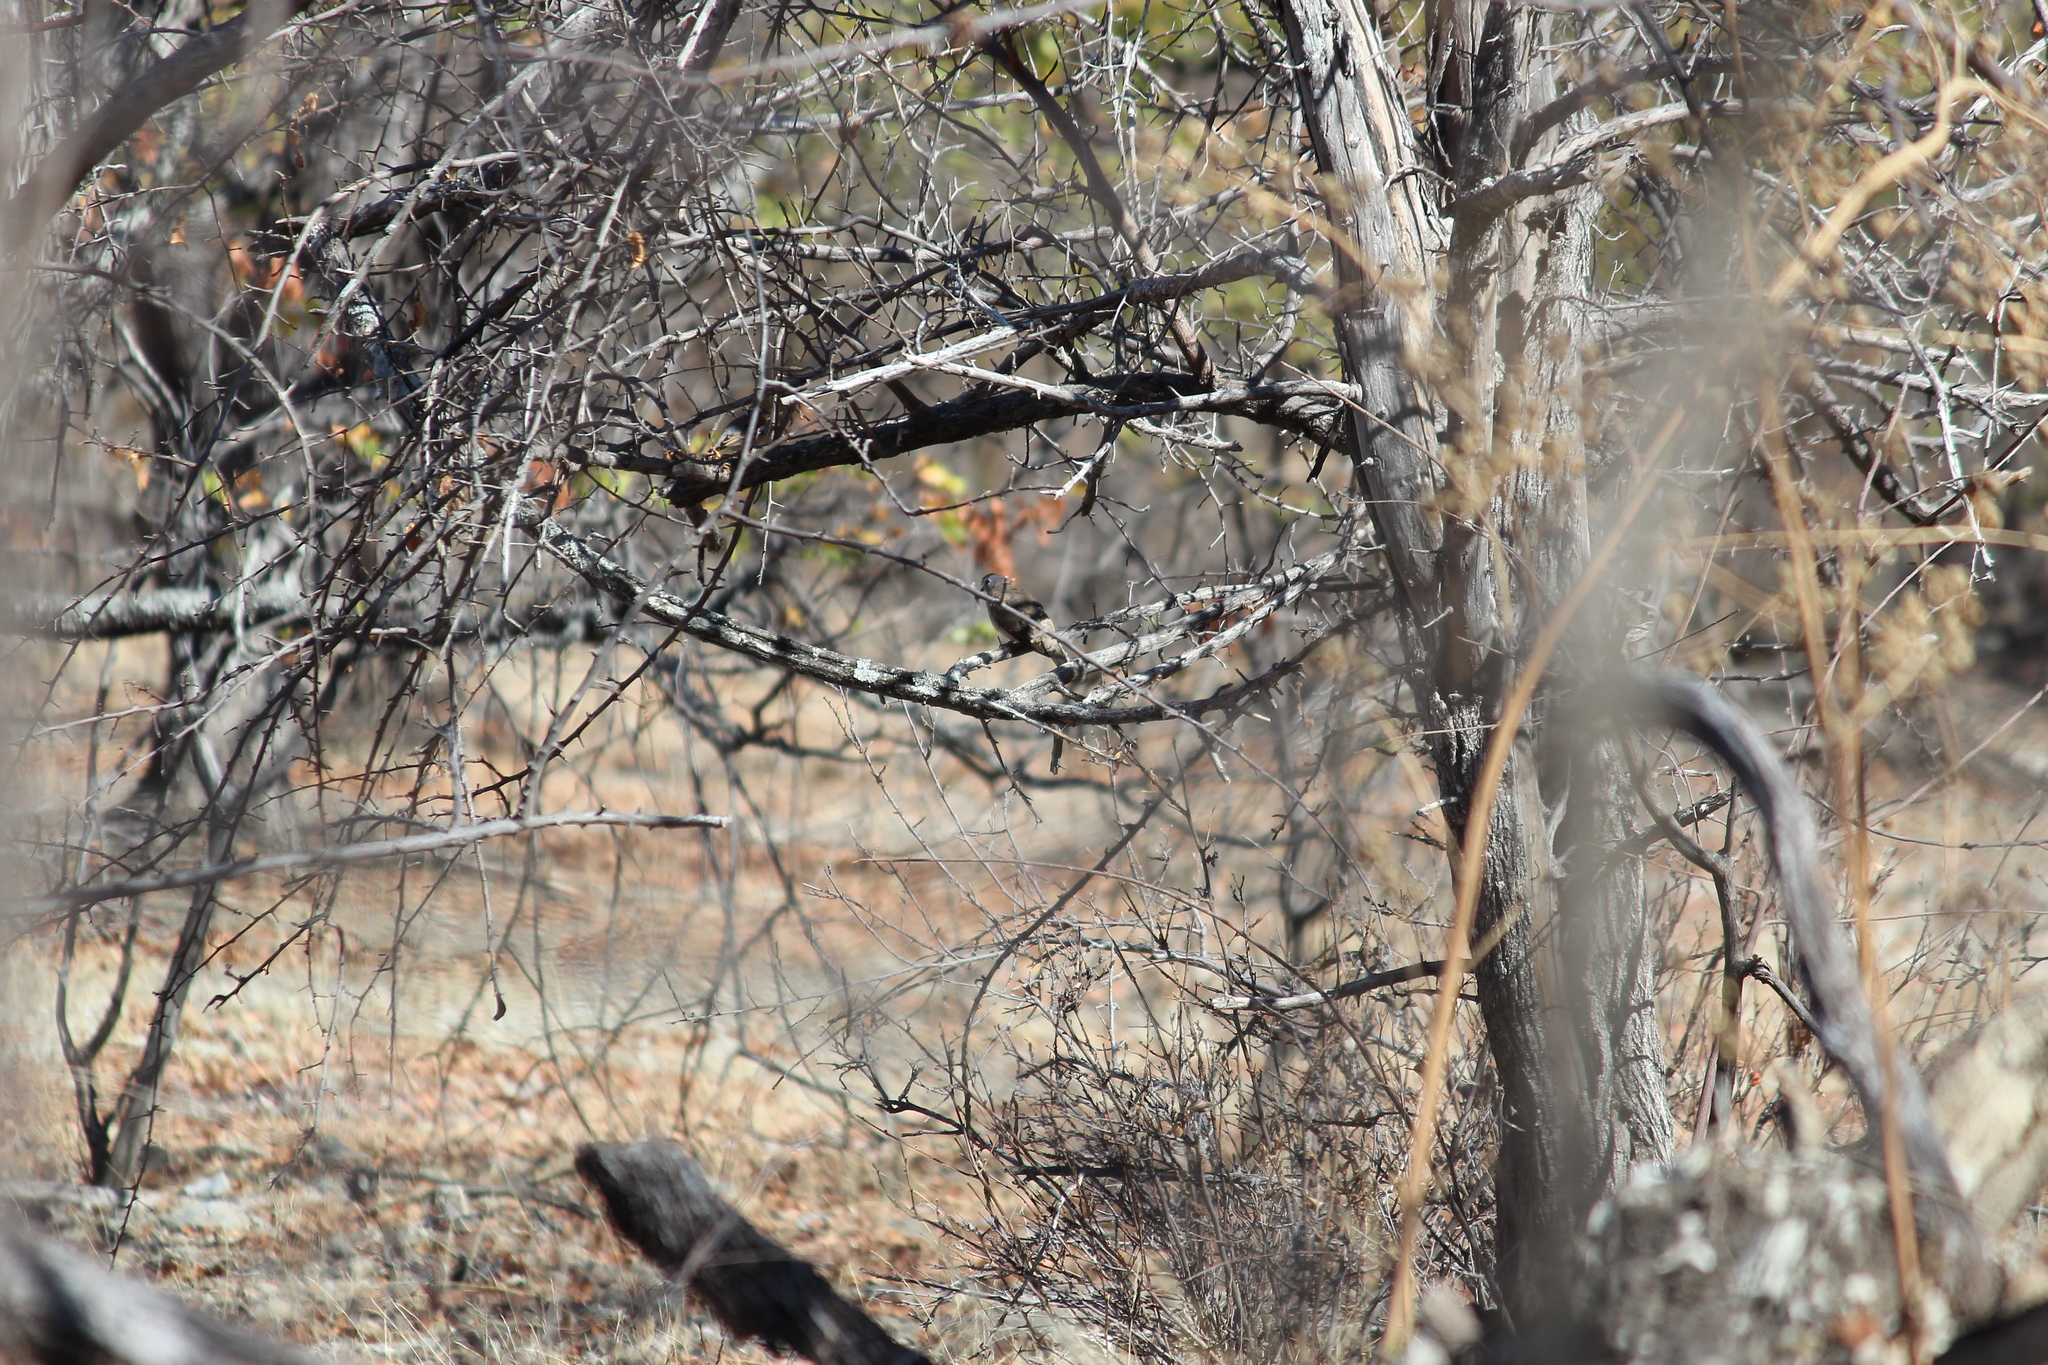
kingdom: Animalia
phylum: Chordata
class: Aves
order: Columbiformes
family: Columbidae
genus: Turtur
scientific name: Turtur chalcospilos
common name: Emerald-spotted wood dove
